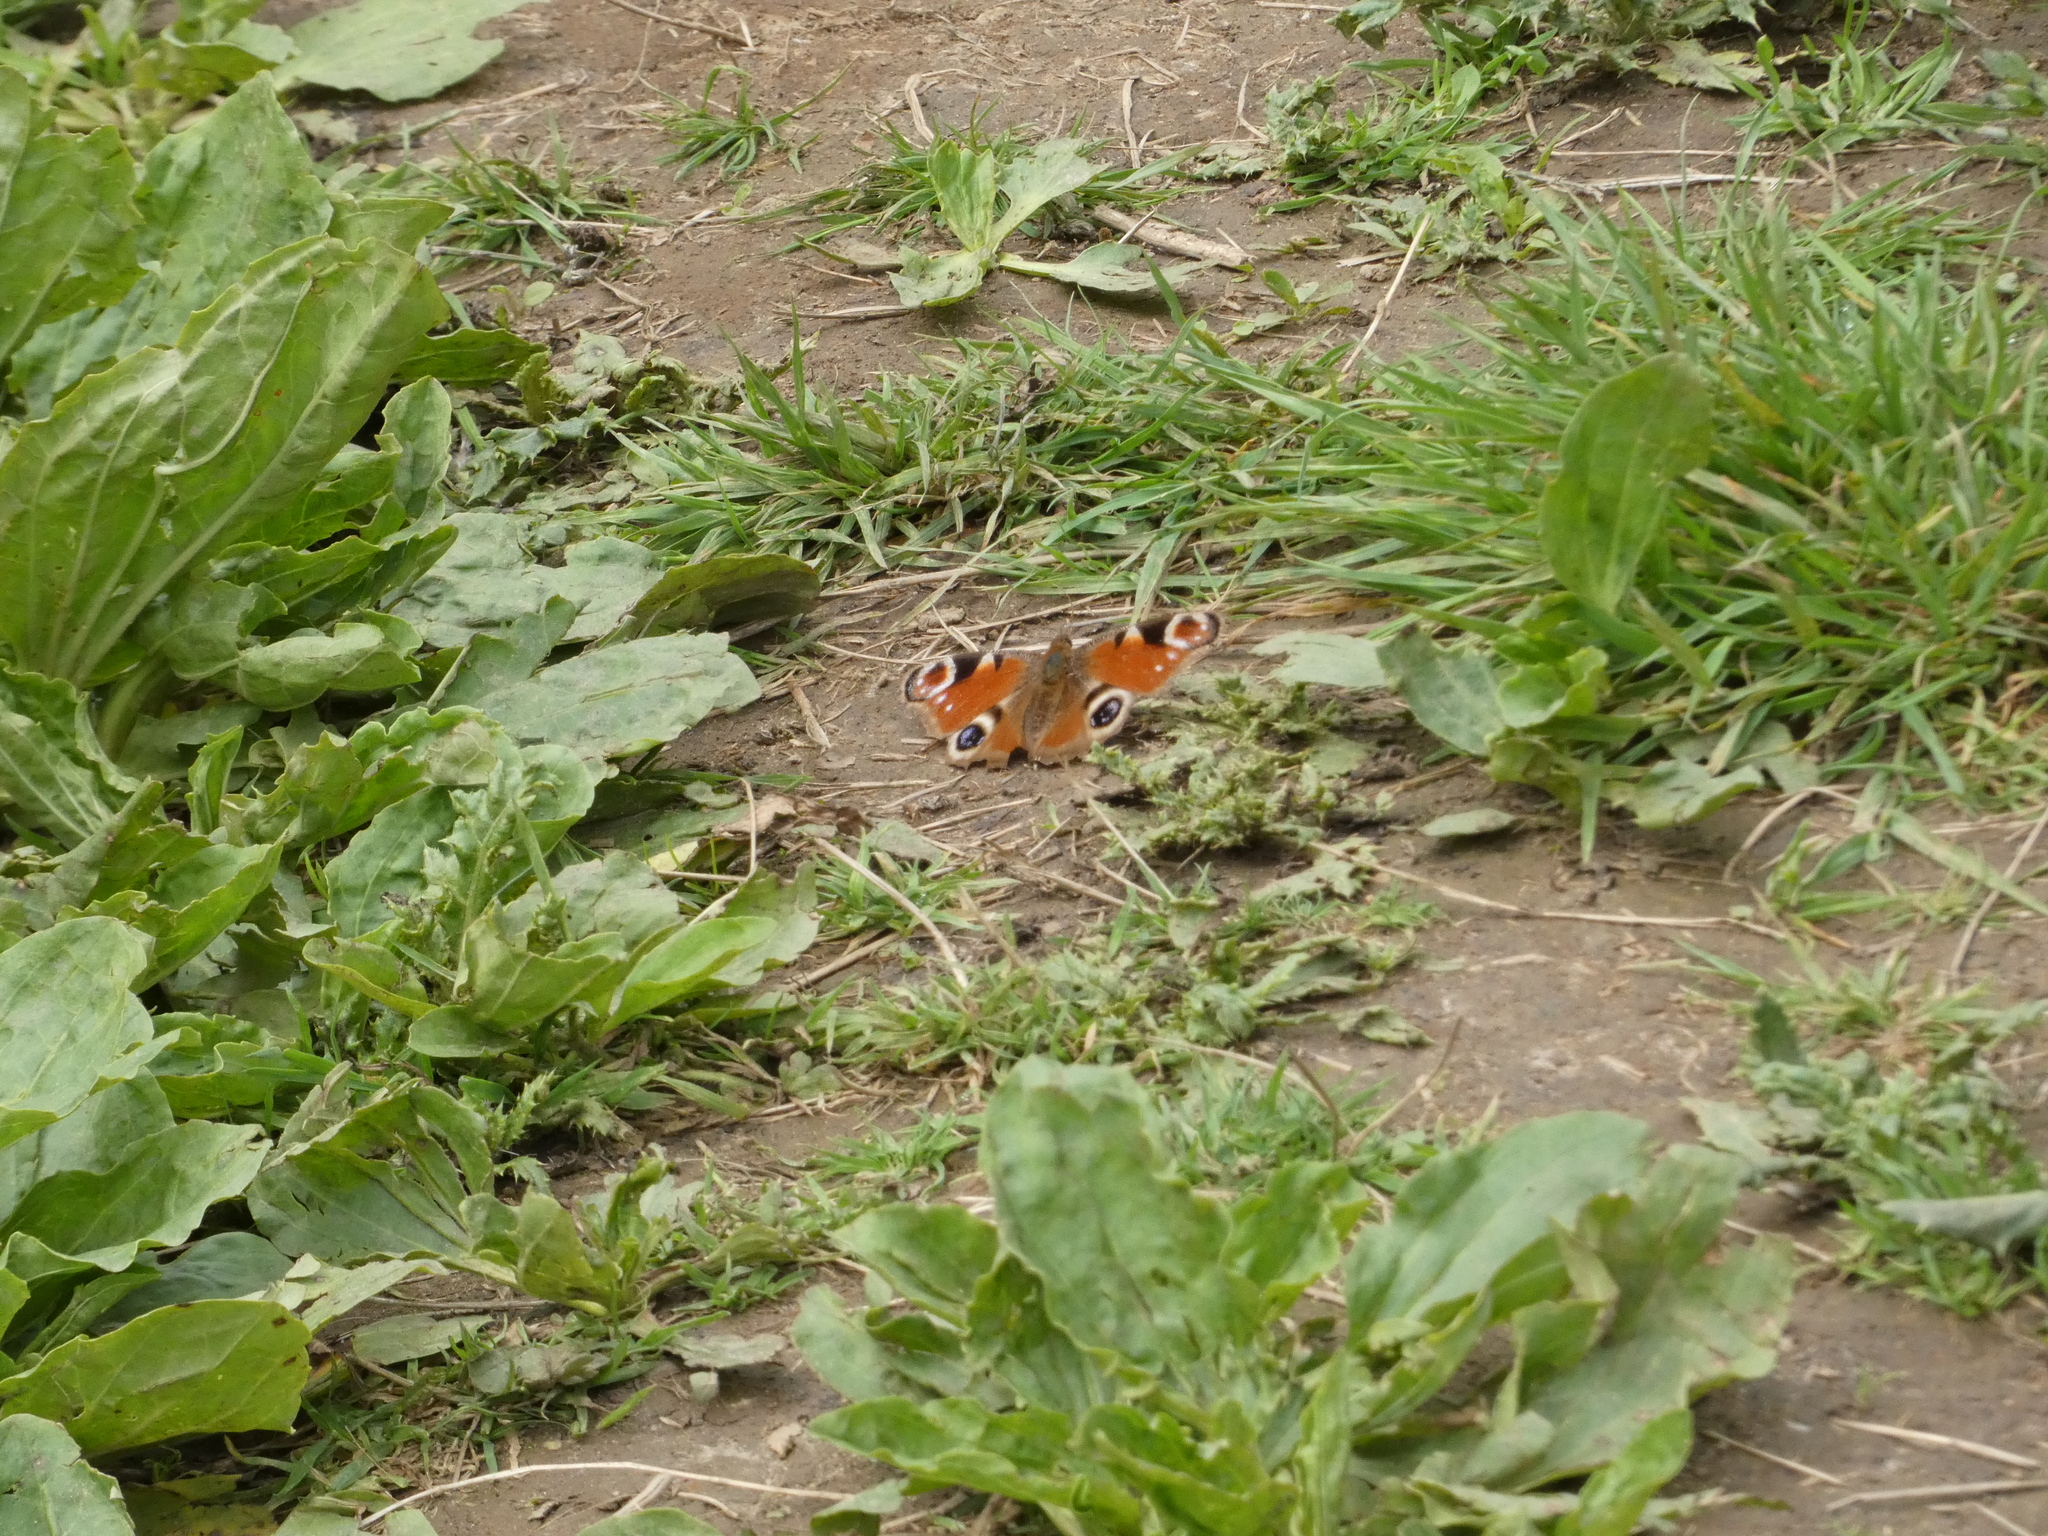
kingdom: Animalia
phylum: Arthropoda
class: Insecta
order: Lepidoptera
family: Nymphalidae
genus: Aglais
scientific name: Aglais io
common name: Peacock
